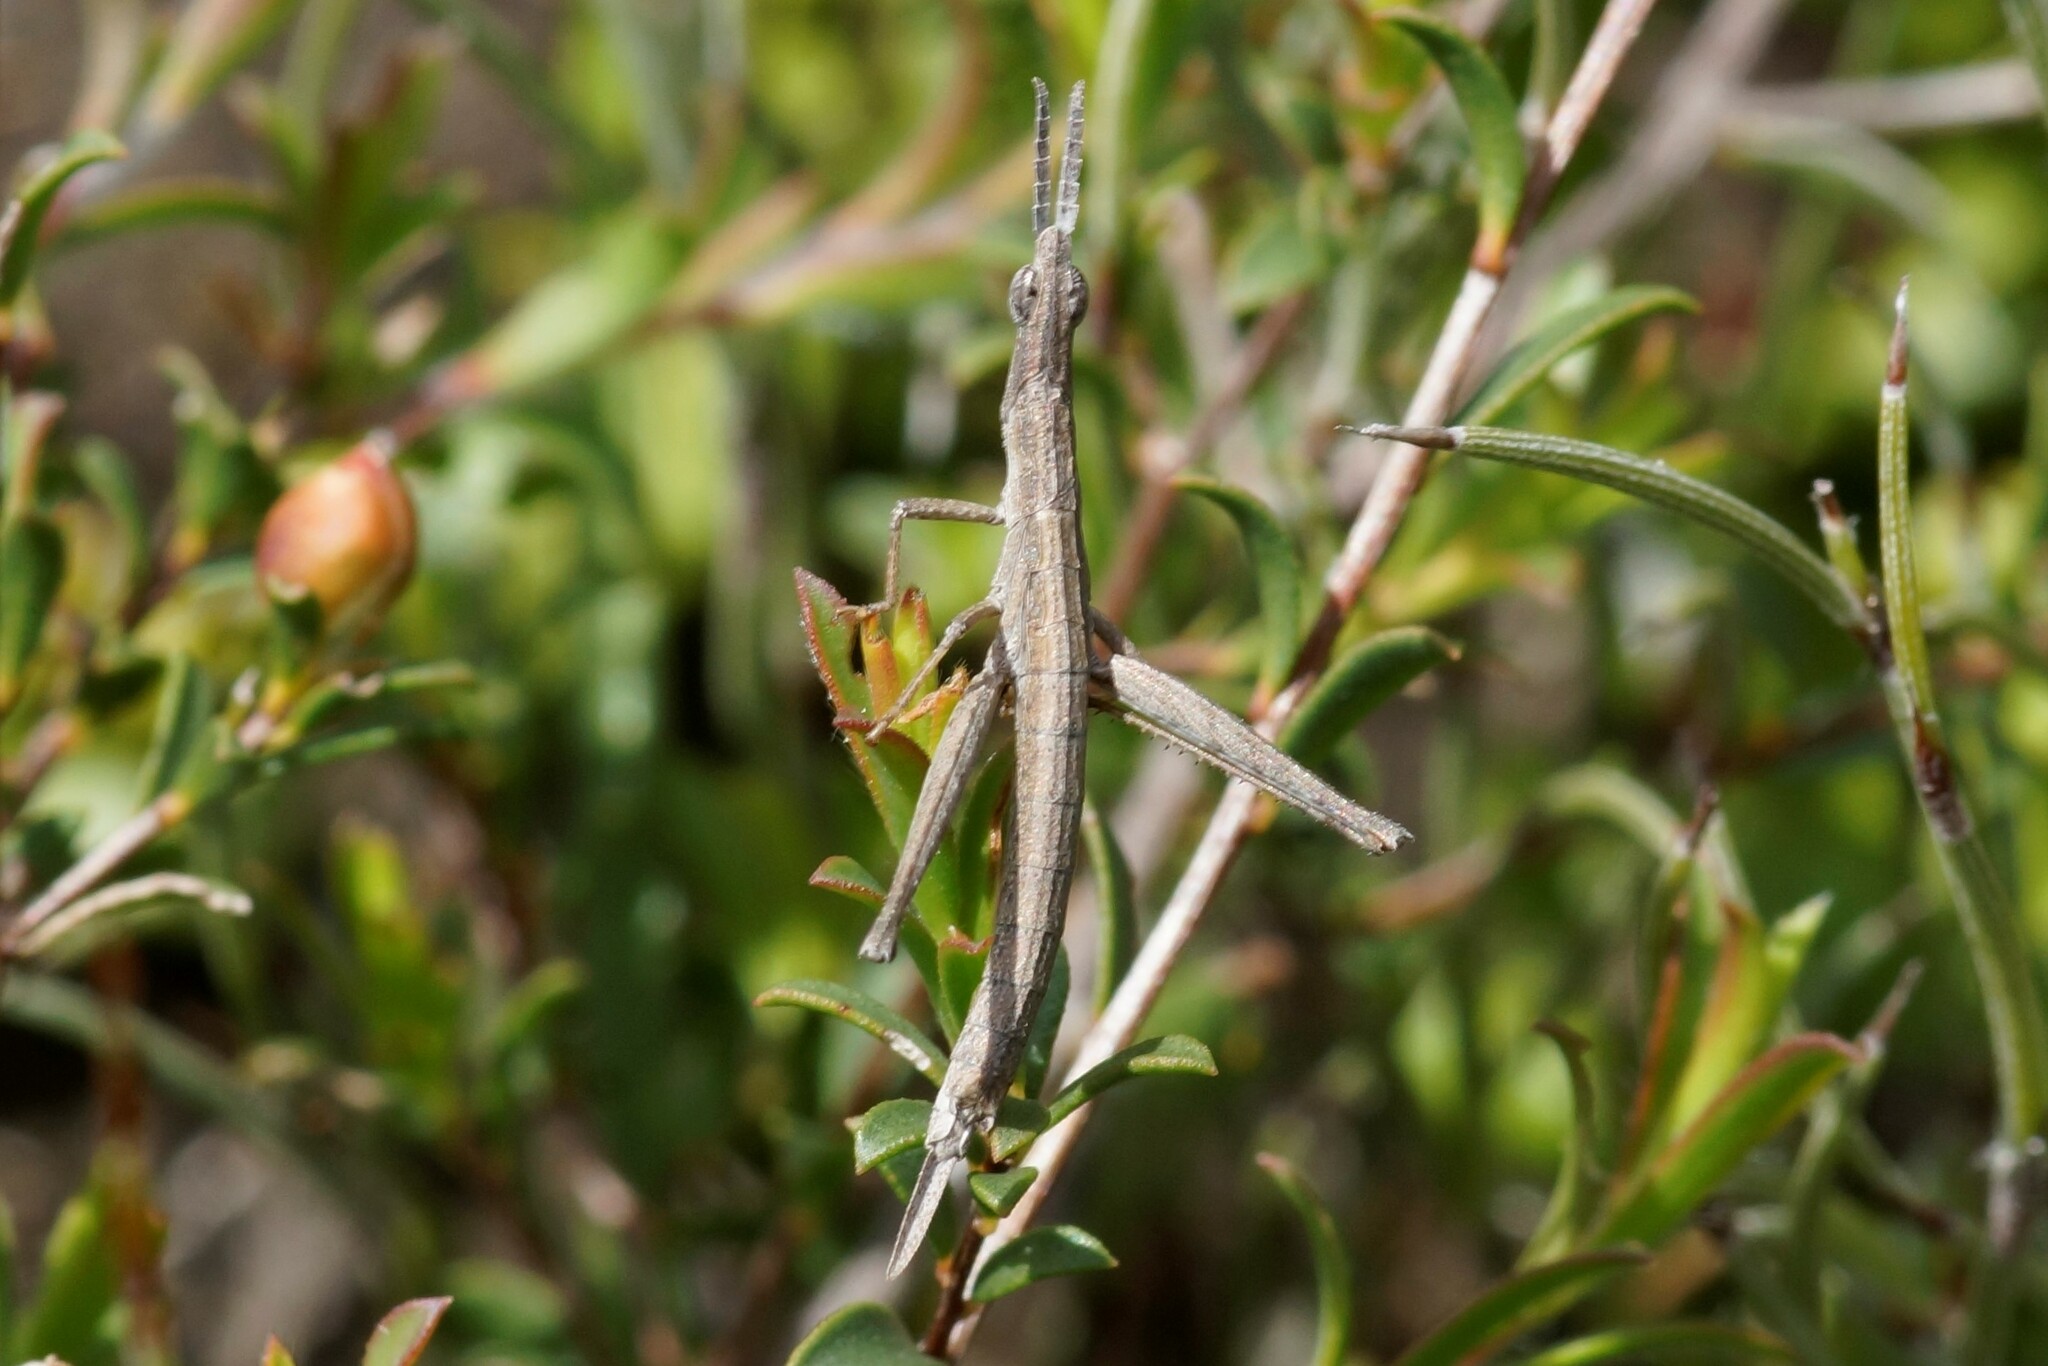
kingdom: Animalia
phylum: Arthropoda
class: Insecta
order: Orthoptera
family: Morabidae
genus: Vandiemenella
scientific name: Vandiemenella viatica
